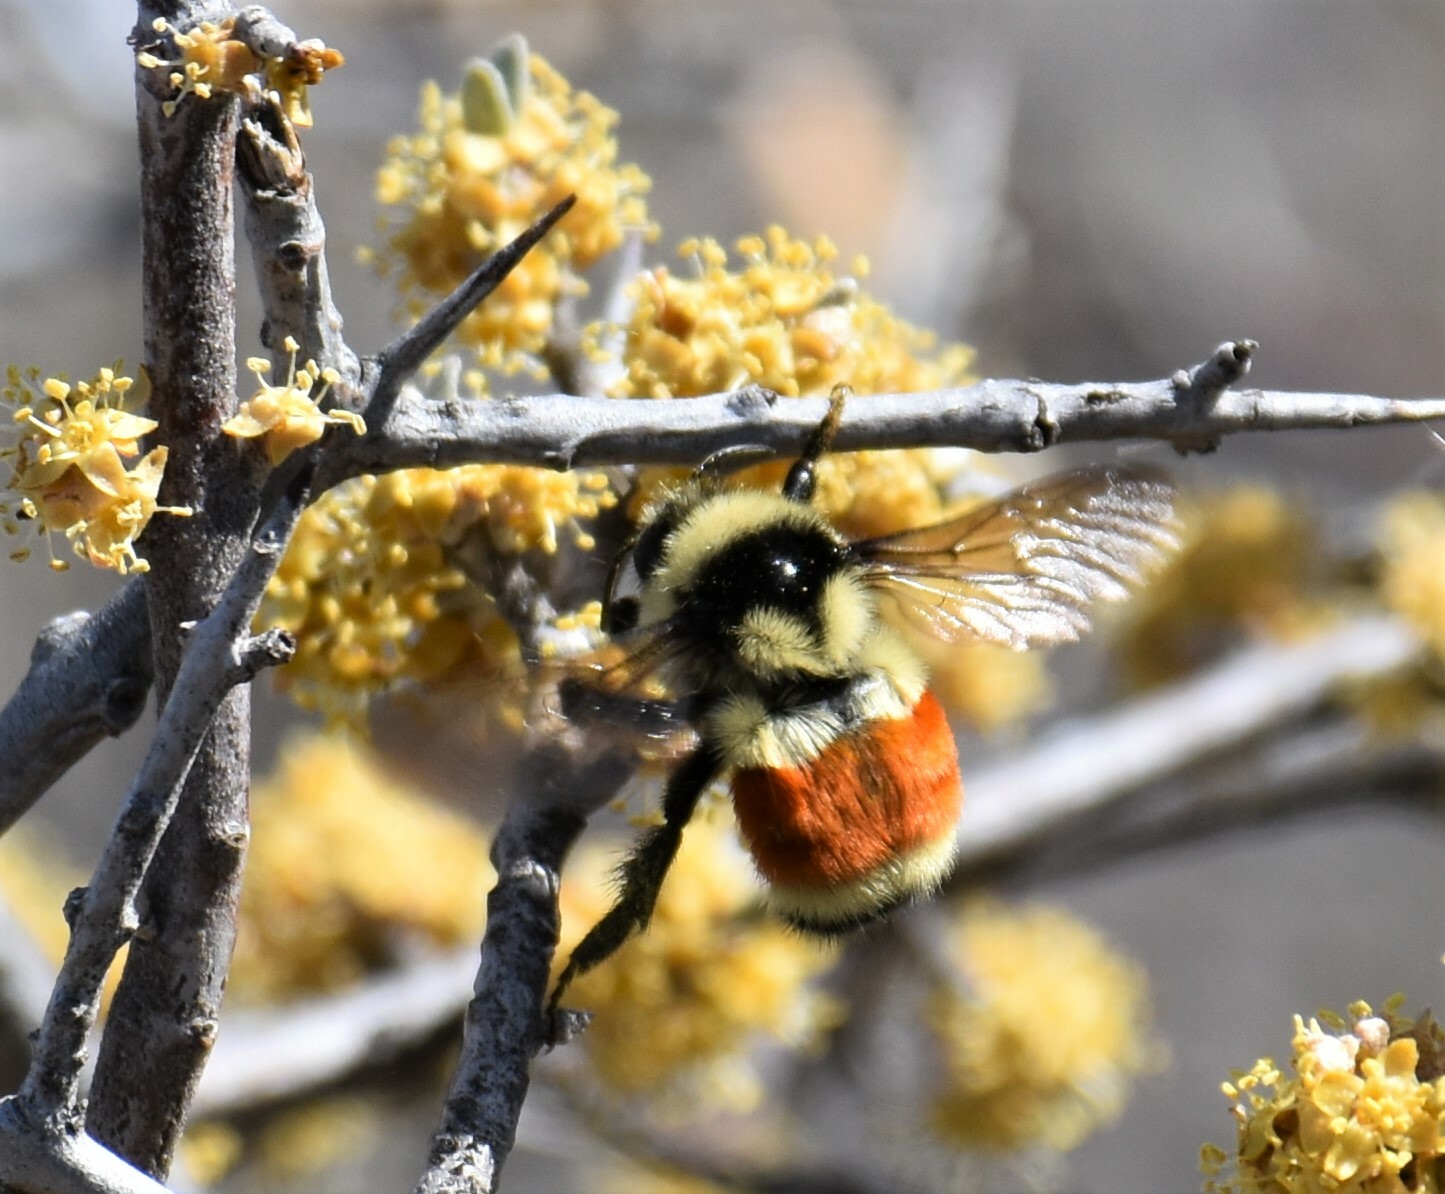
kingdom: Animalia
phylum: Arthropoda
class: Insecta
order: Hymenoptera
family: Apidae
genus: Bombus
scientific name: Bombus ternarius
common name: Tri-colored bumble bee
